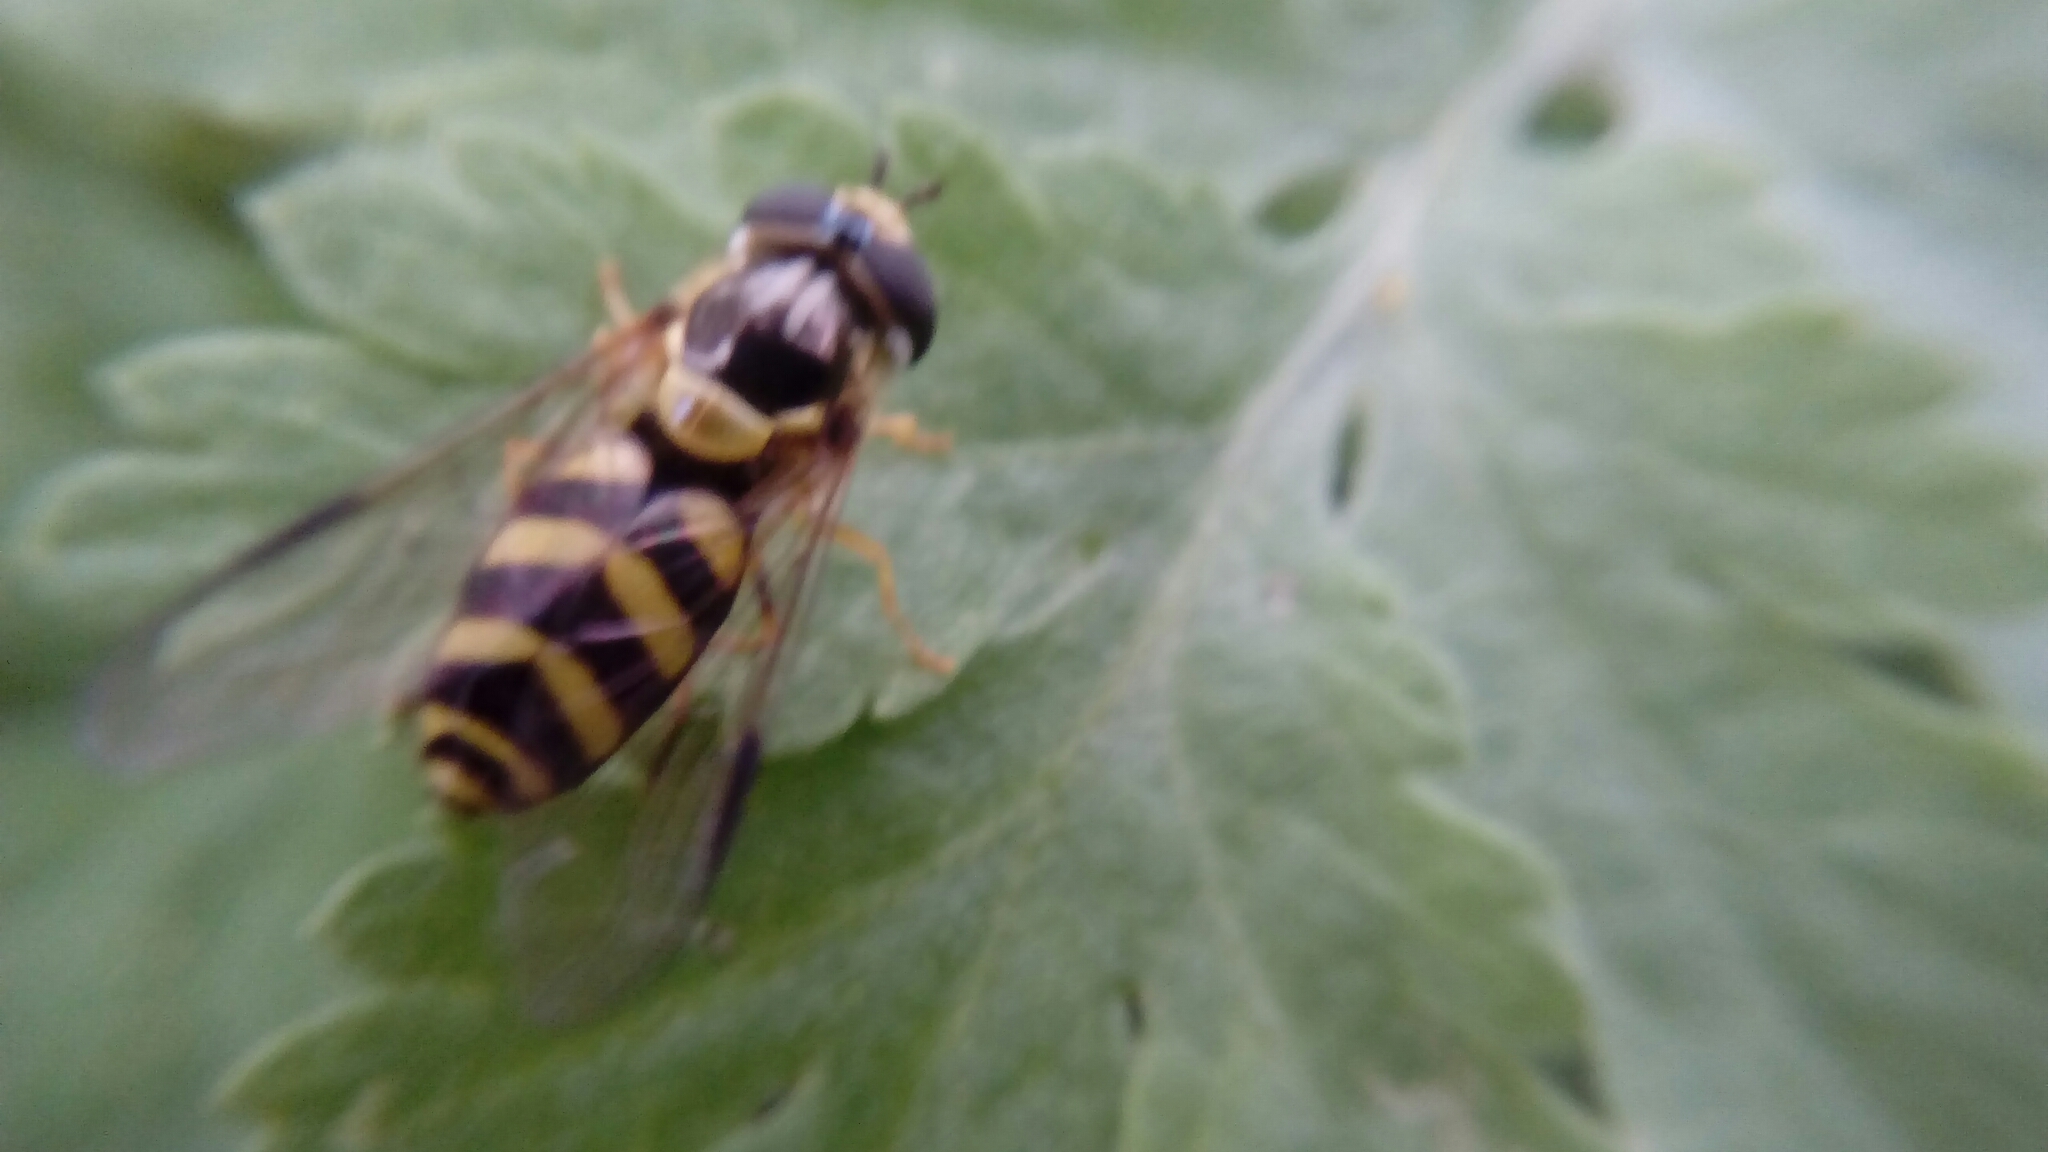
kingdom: Animalia
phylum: Arthropoda
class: Insecta
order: Diptera
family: Syrphidae
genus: Dasysyrphus
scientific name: Dasysyrphus albostriatus
